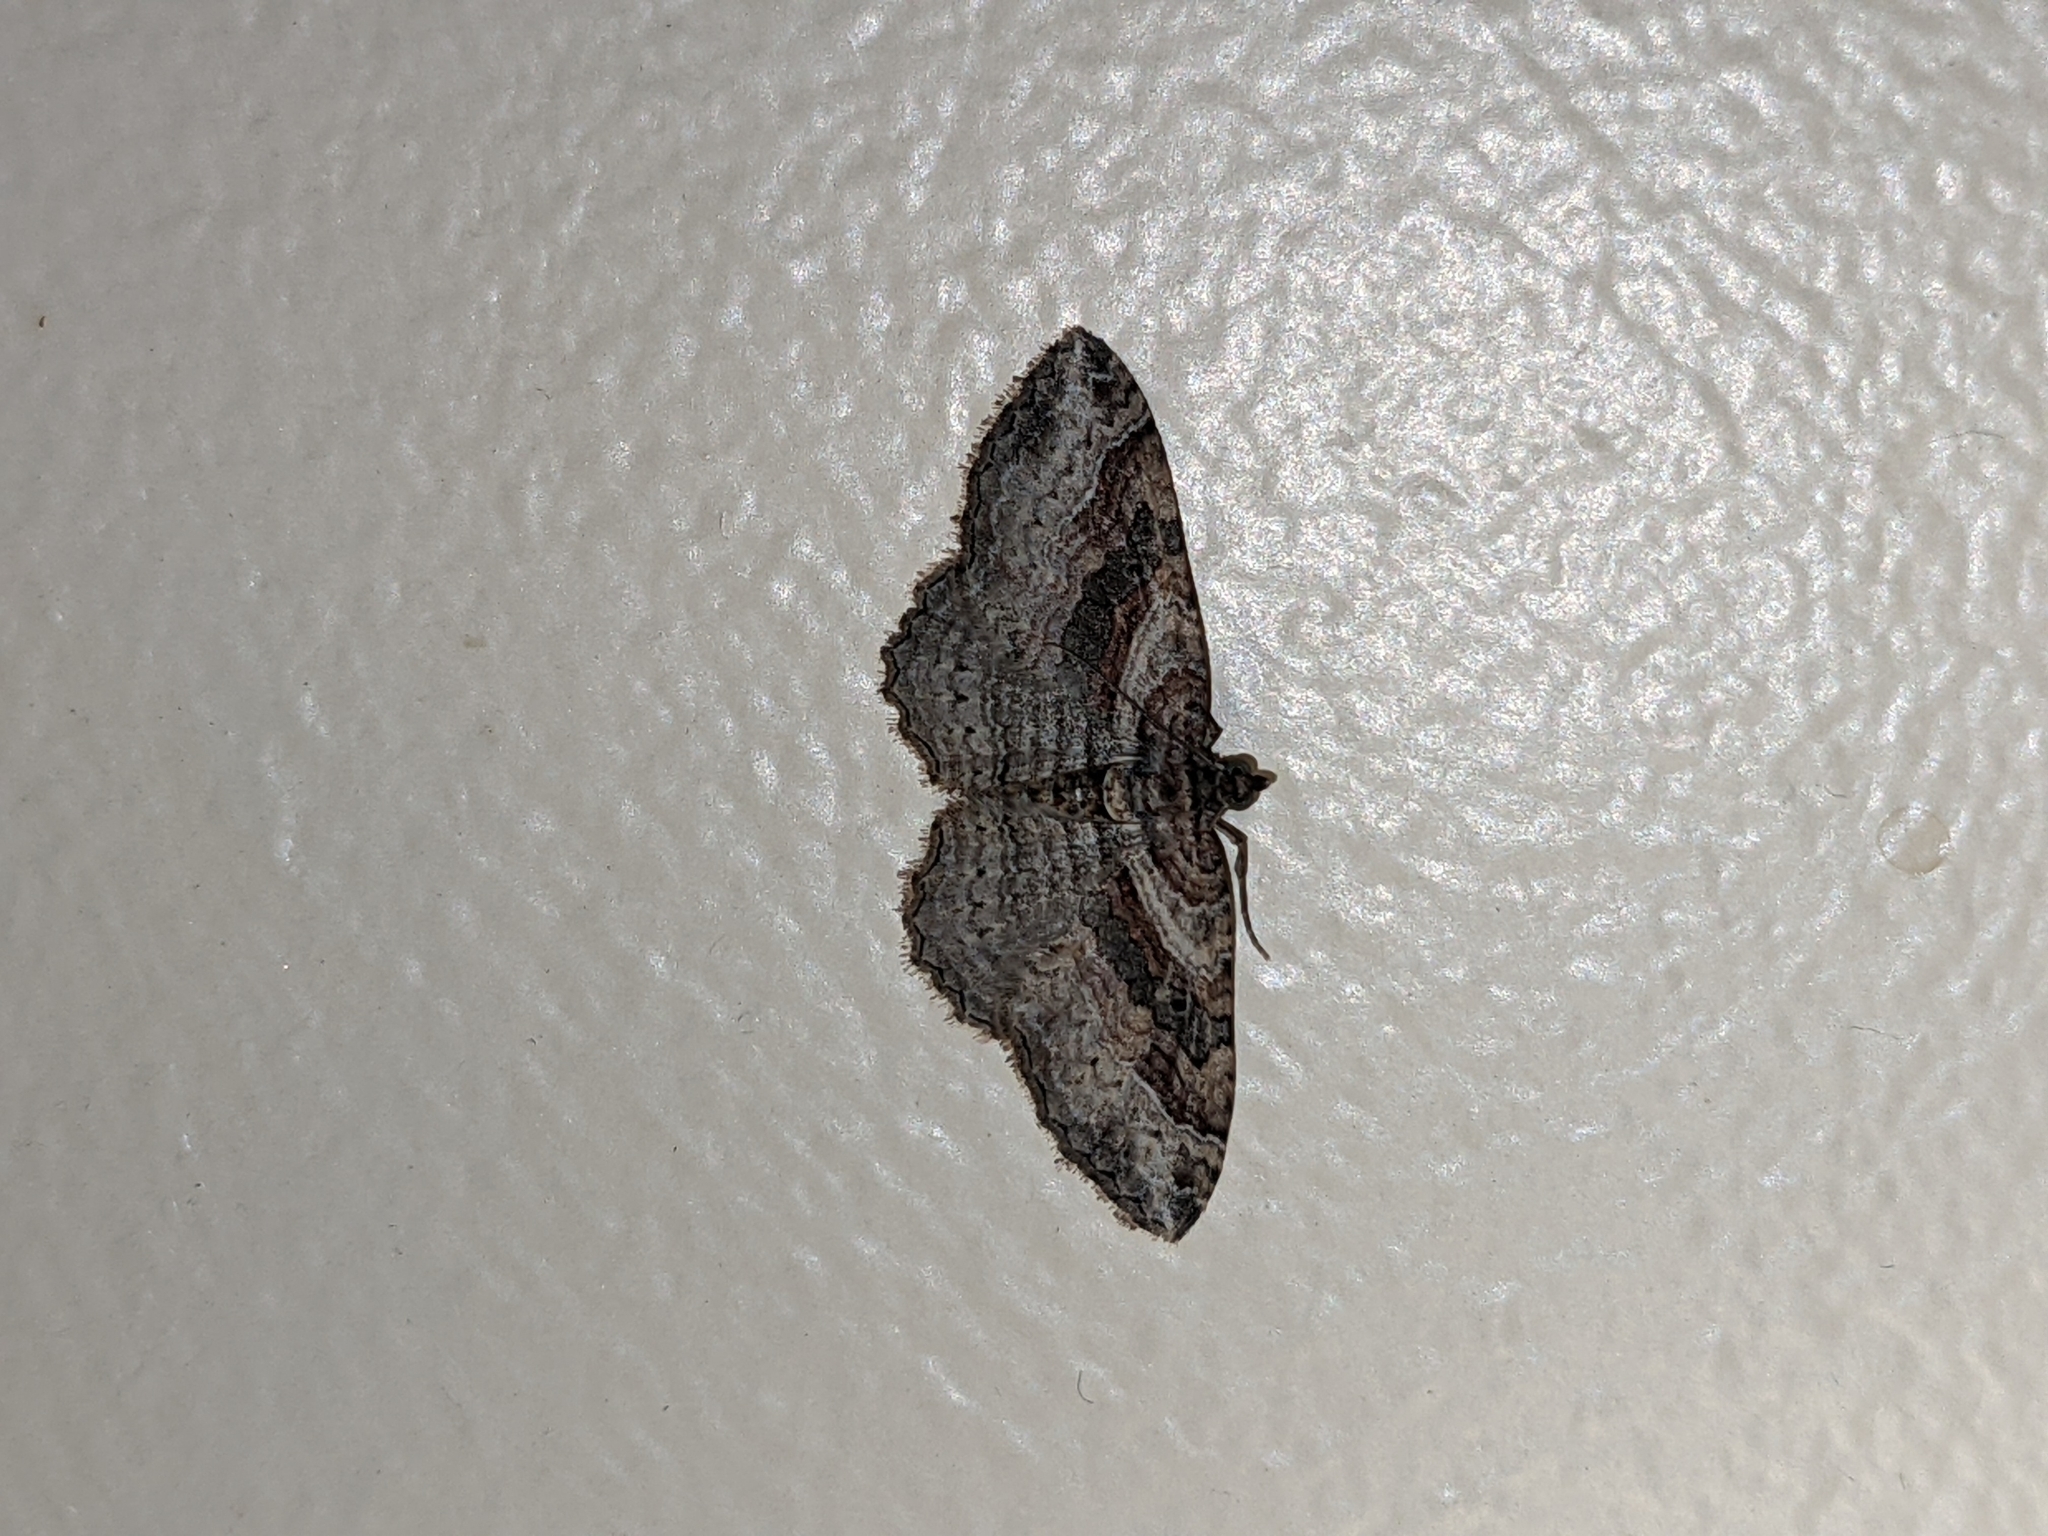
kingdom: Animalia
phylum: Arthropoda
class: Insecta
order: Lepidoptera
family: Geometridae
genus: Costaconvexa
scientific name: Costaconvexa centrostrigaria
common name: Bent-line carpet
